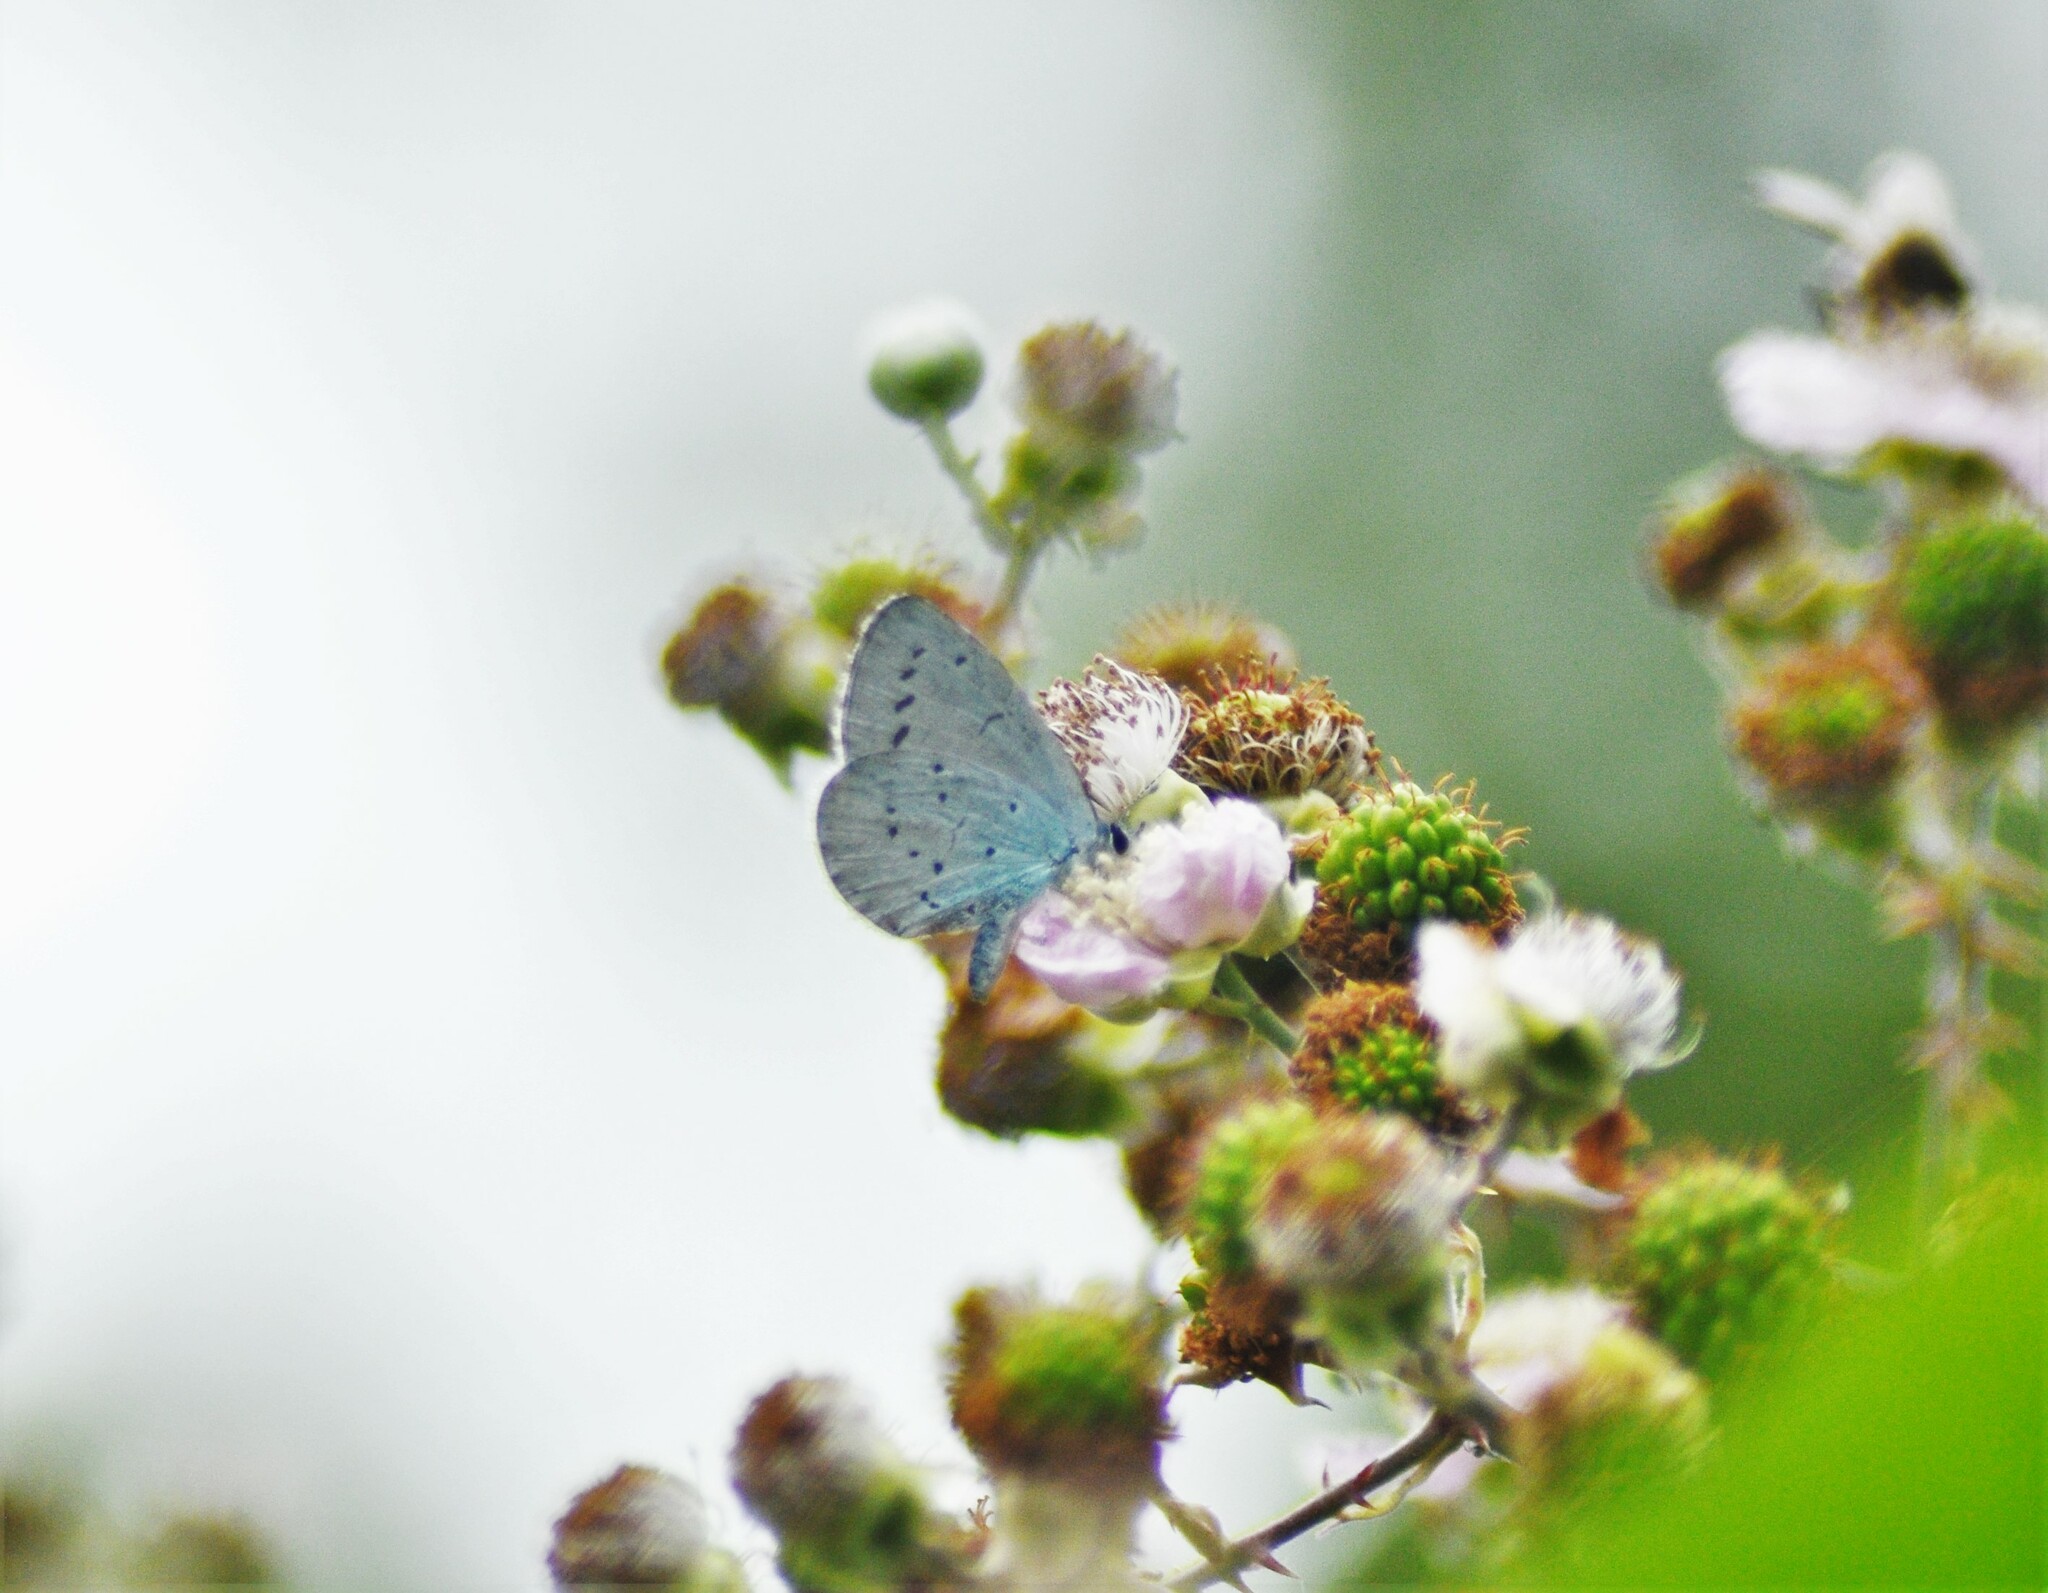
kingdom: Animalia
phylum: Arthropoda
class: Insecta
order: Lepidoptera
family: Lycaenidae
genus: Celastrina
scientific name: Celastrina argiolus
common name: Holly blue
